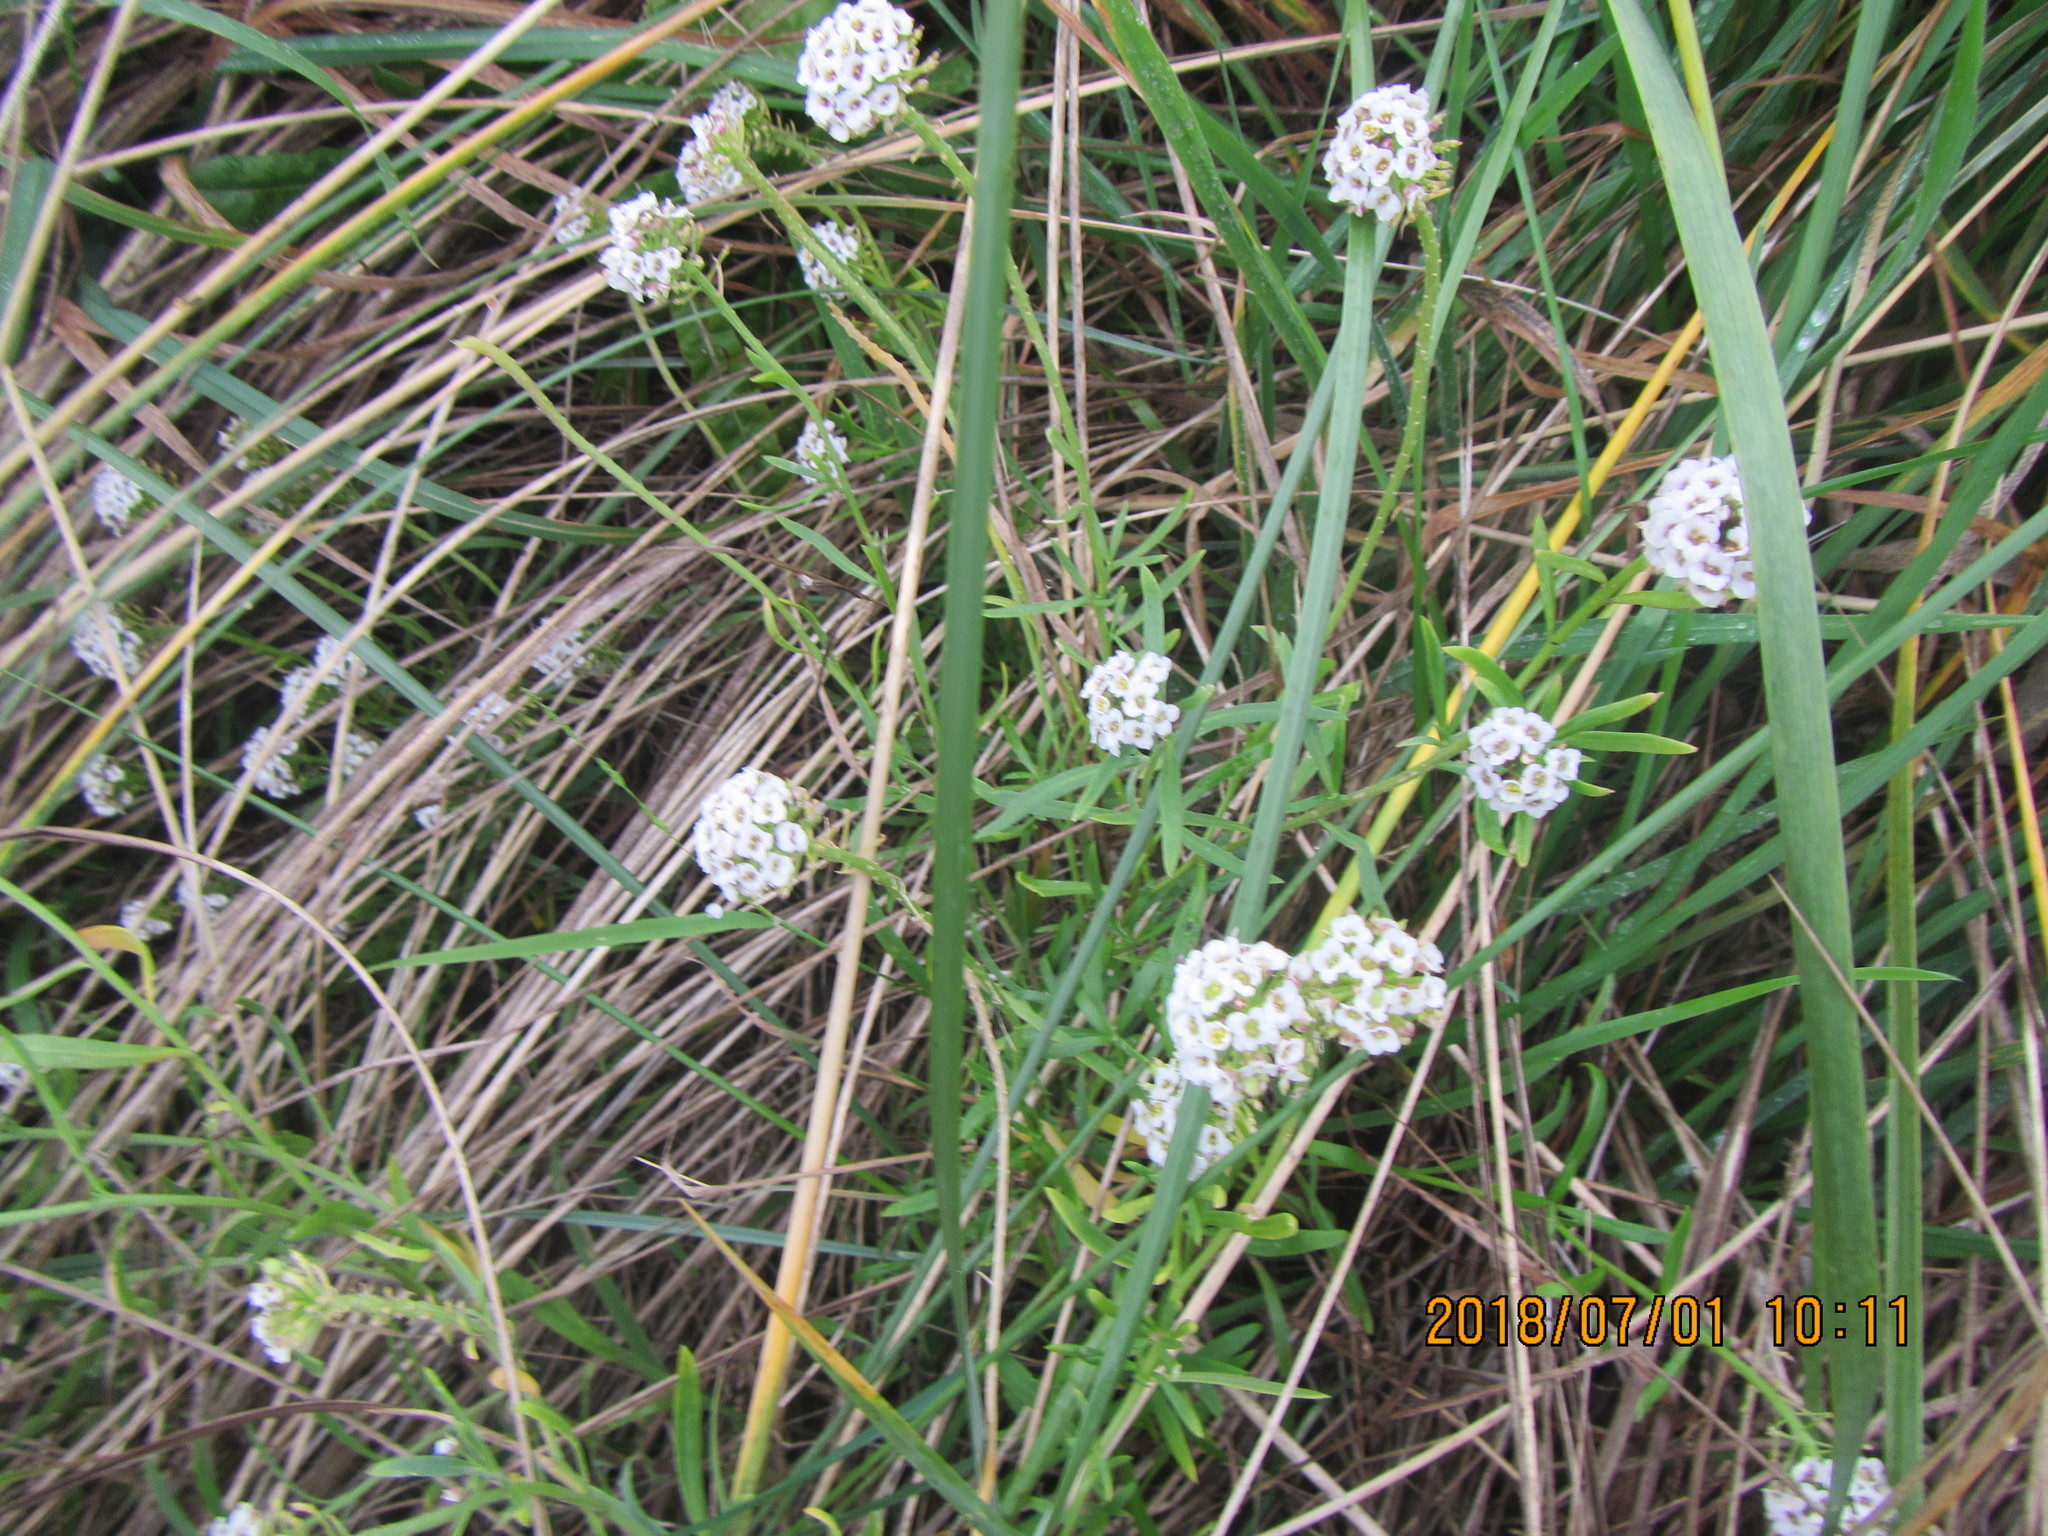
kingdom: Plantae
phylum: Tracheophyta
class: Magnoliopsida
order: Brassicales
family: Brassicaceae
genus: Lobularia
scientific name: Lobularia maritima
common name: Sweet alison
